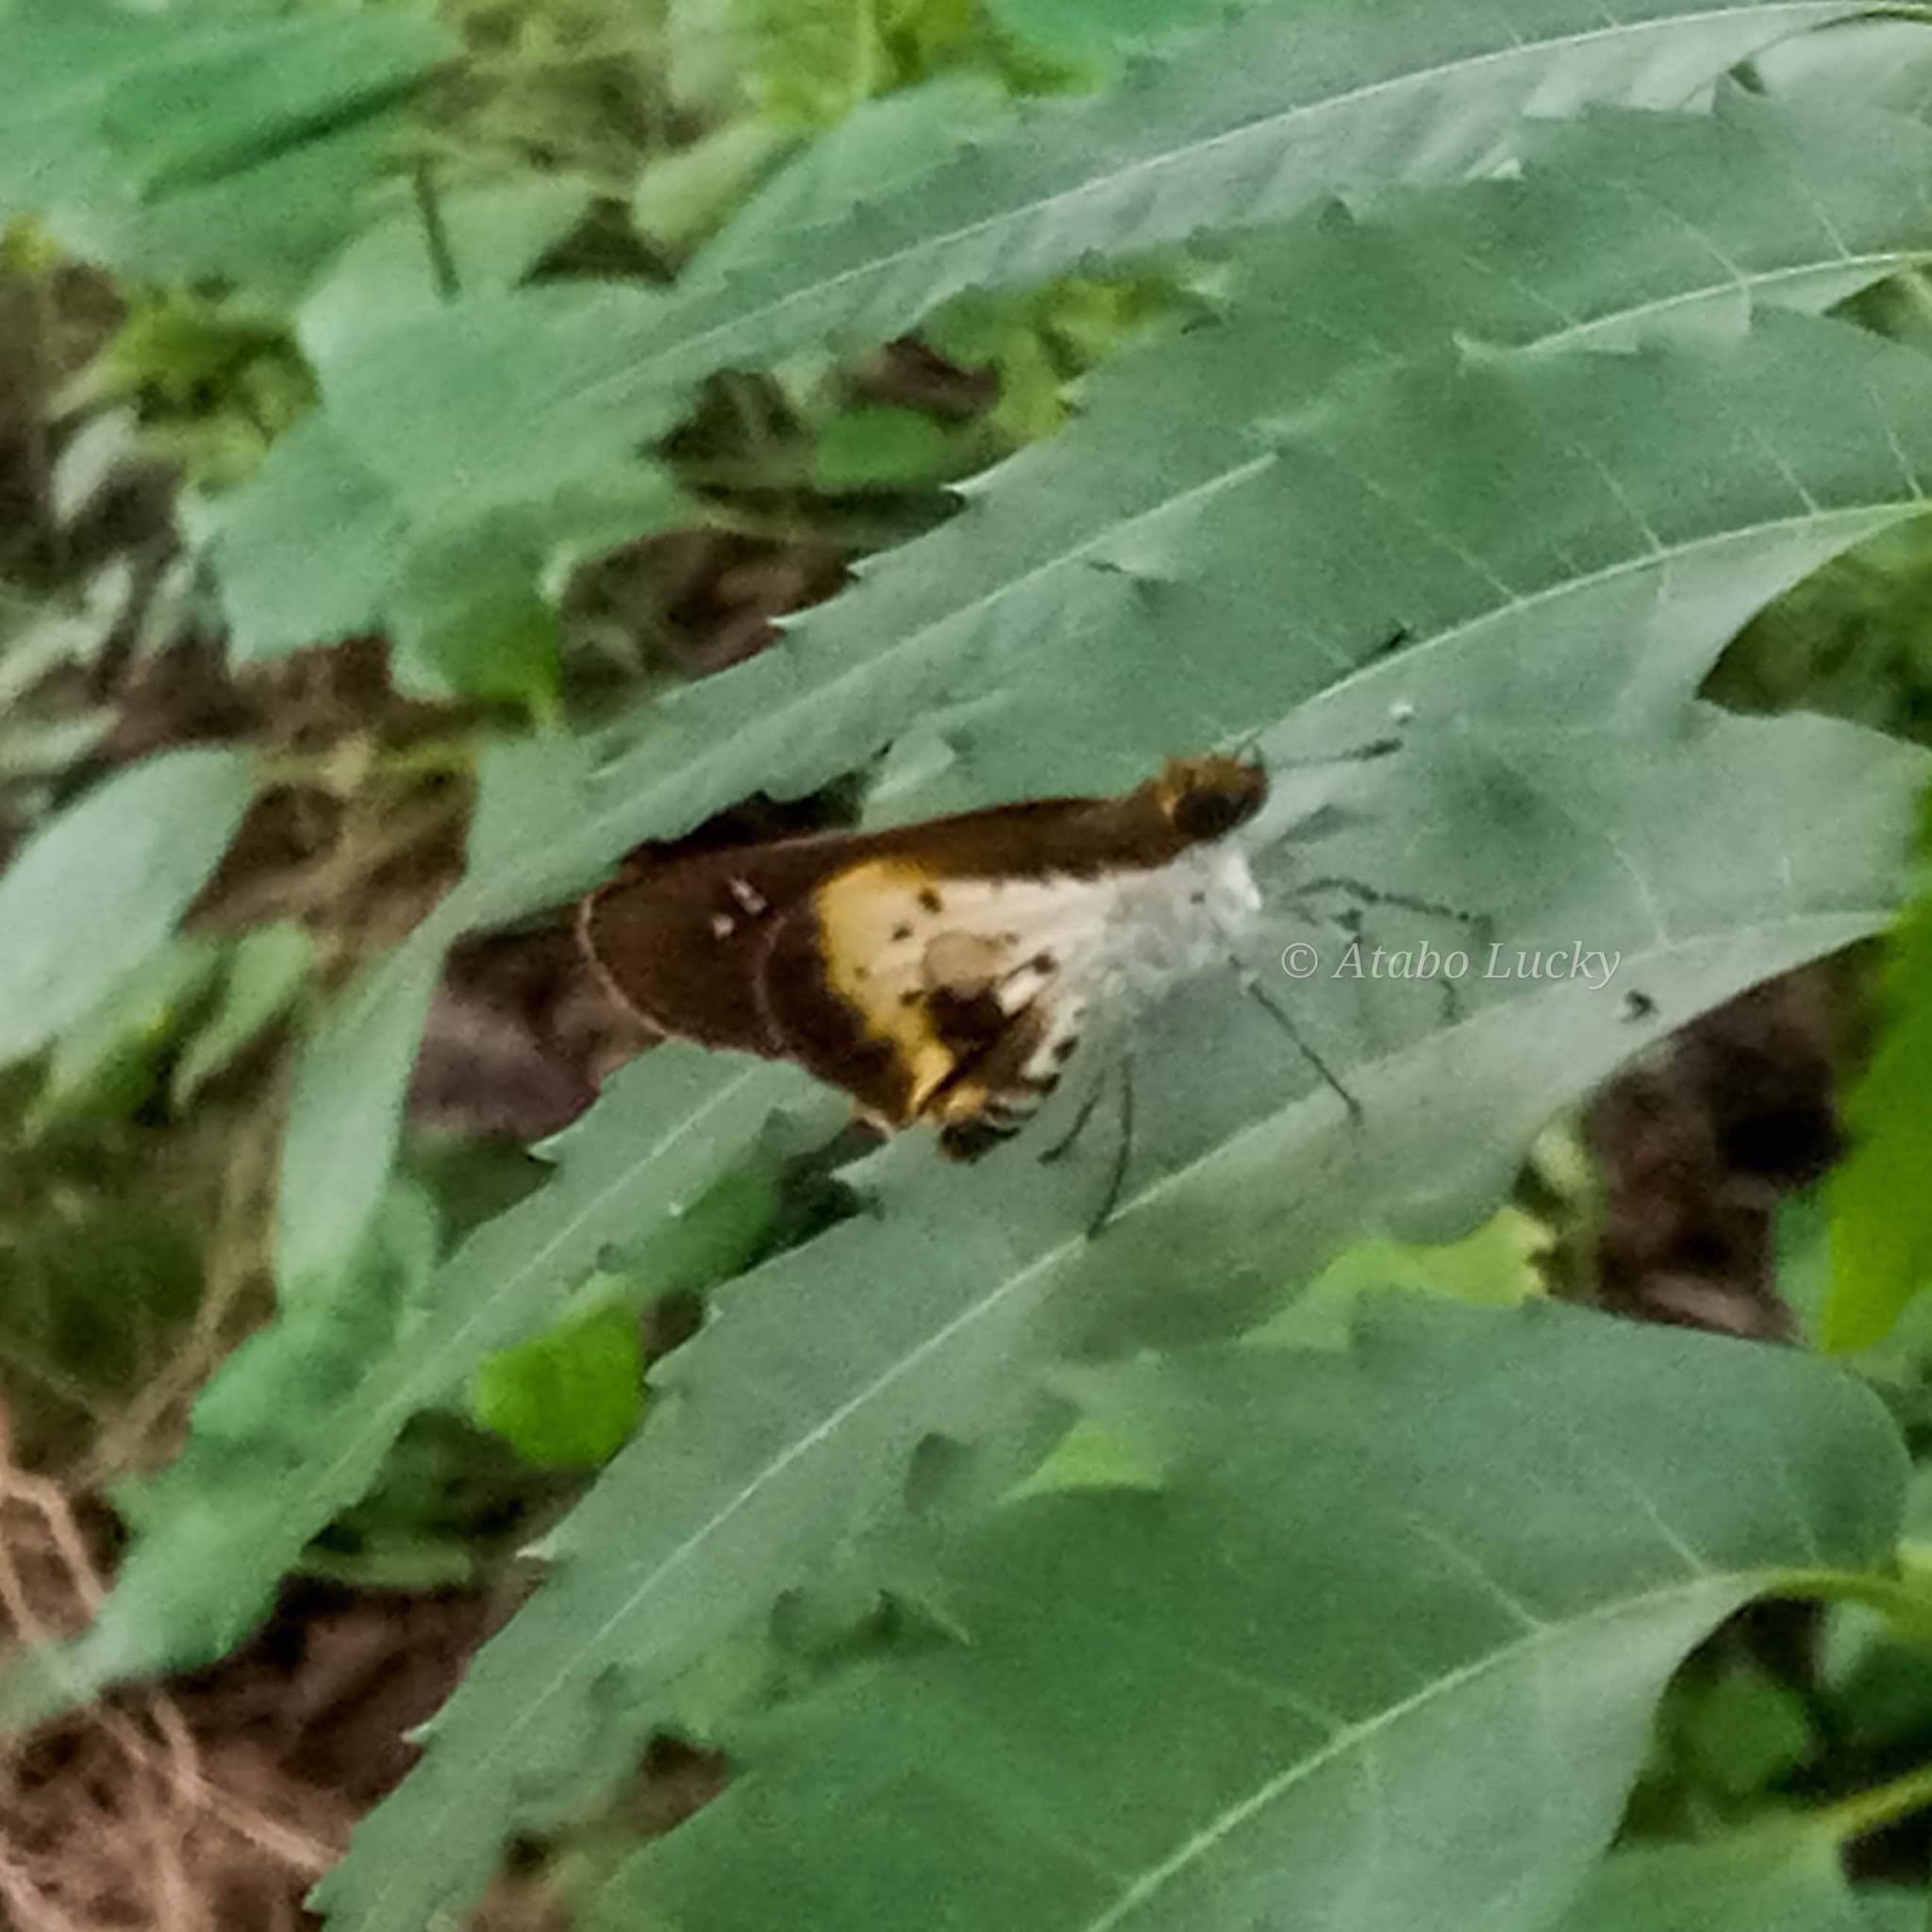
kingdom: Animalia
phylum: Arthropoda
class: Insecta
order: Lepidoptera
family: Hesperiidae
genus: Andronymus
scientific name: Andronymus caesar
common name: Common dart
